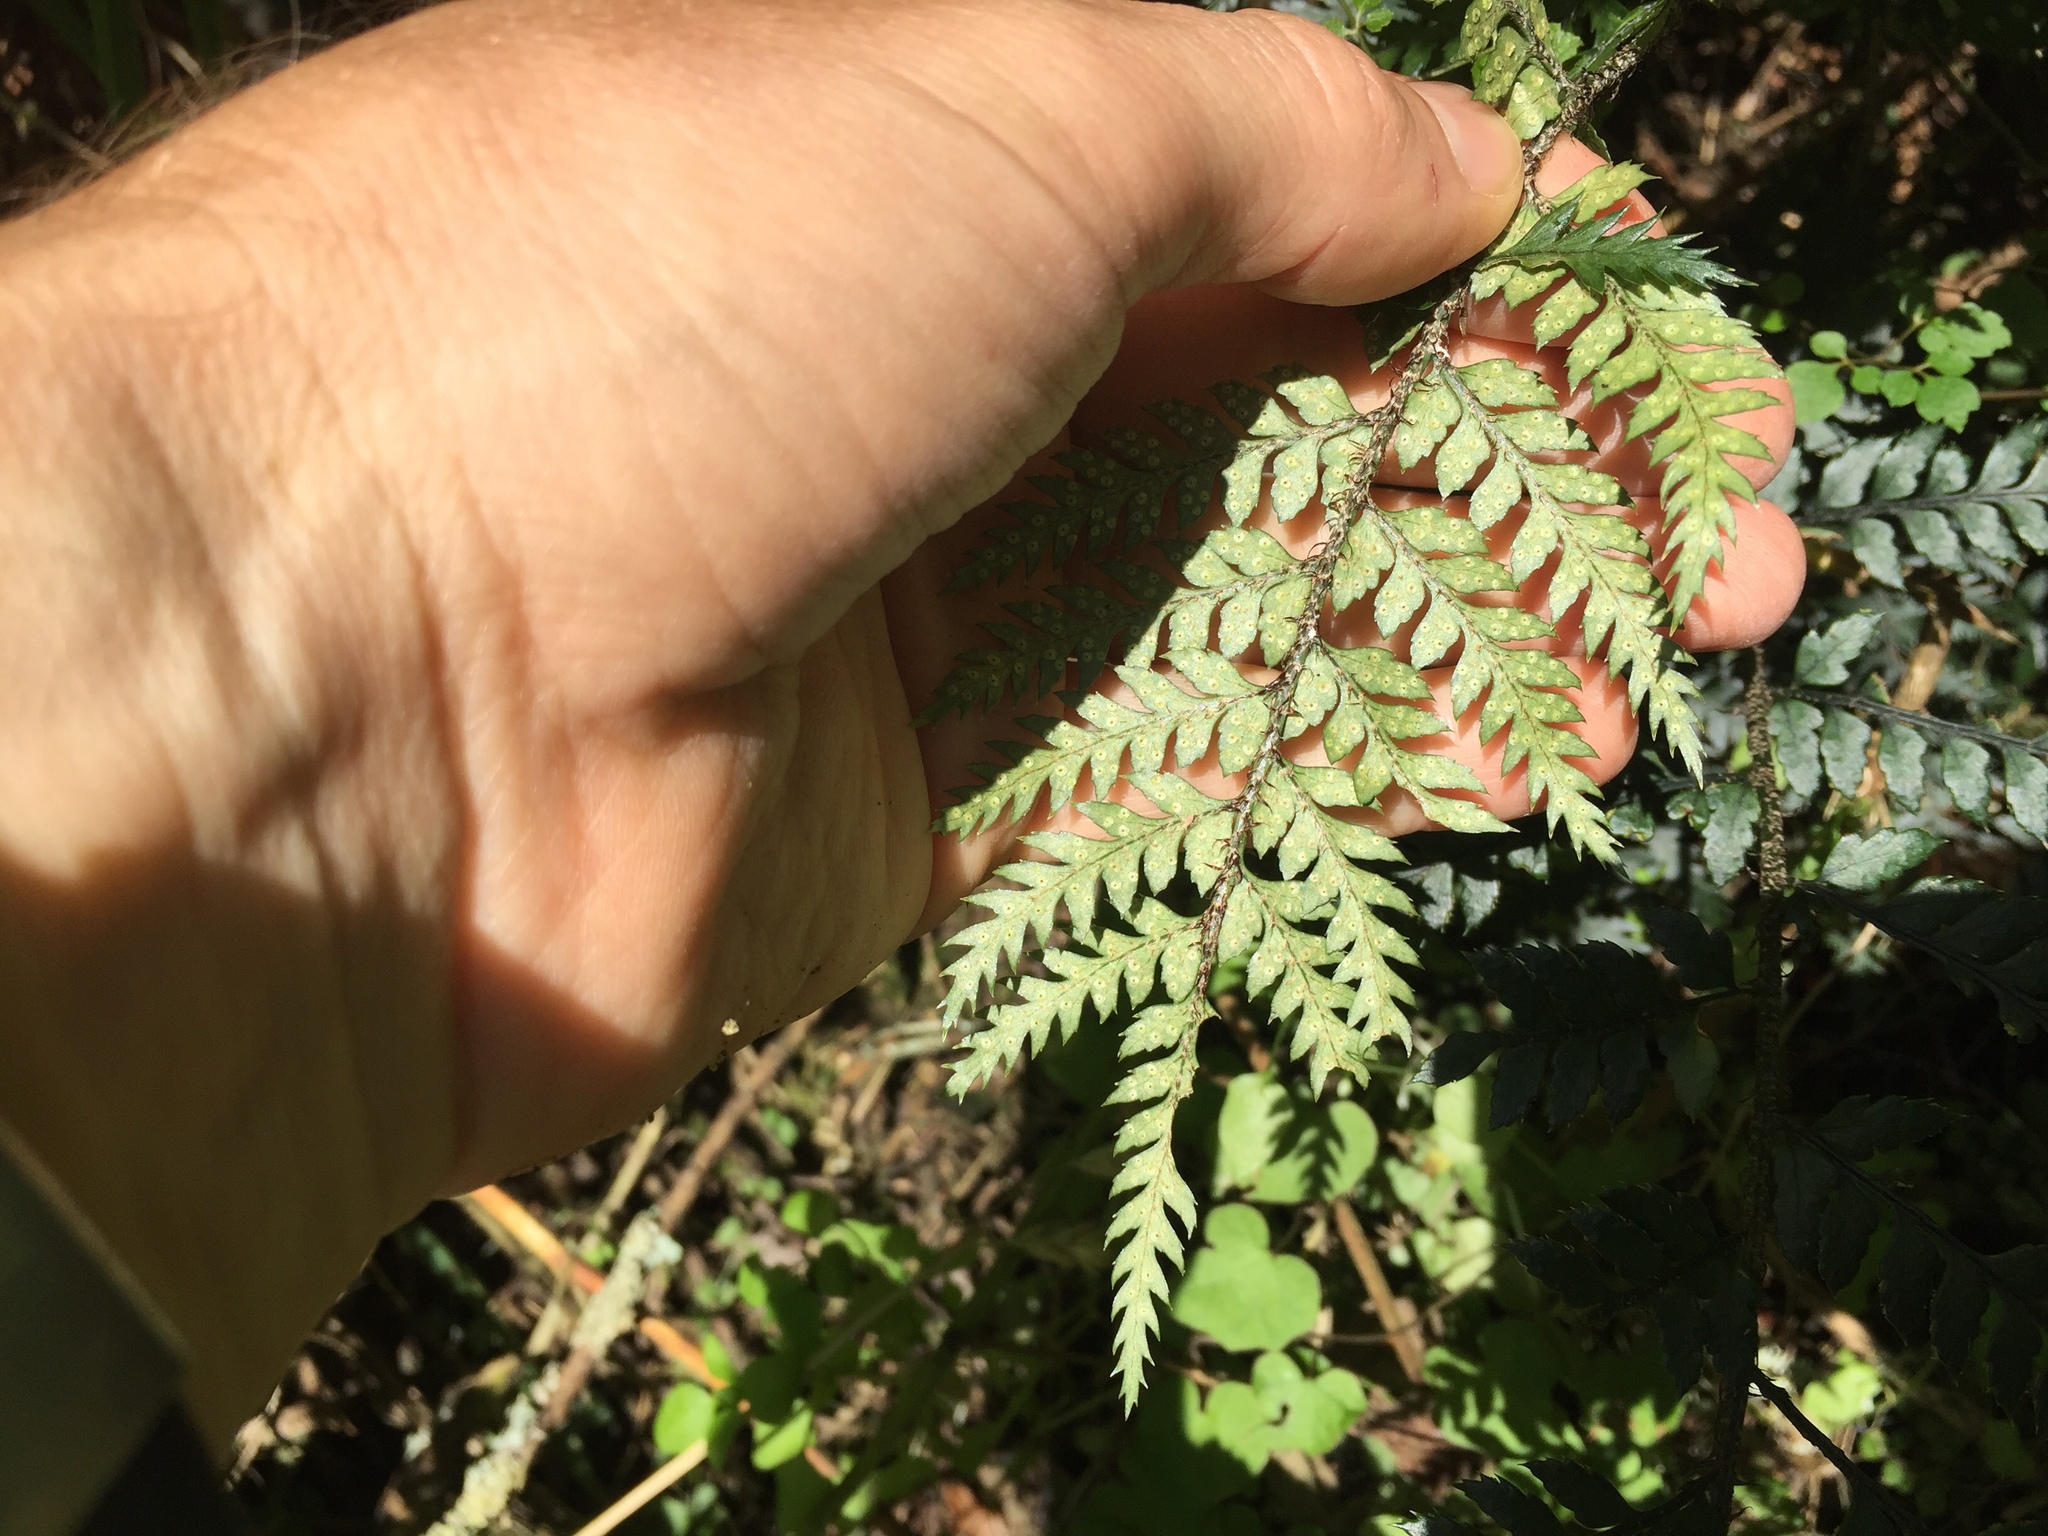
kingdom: Plantae
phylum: Tracheophyta
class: Polypodiopsida
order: Polypodiales
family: Dryopteridaceae
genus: Polystichum
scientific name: Polystichum neozelandicum
